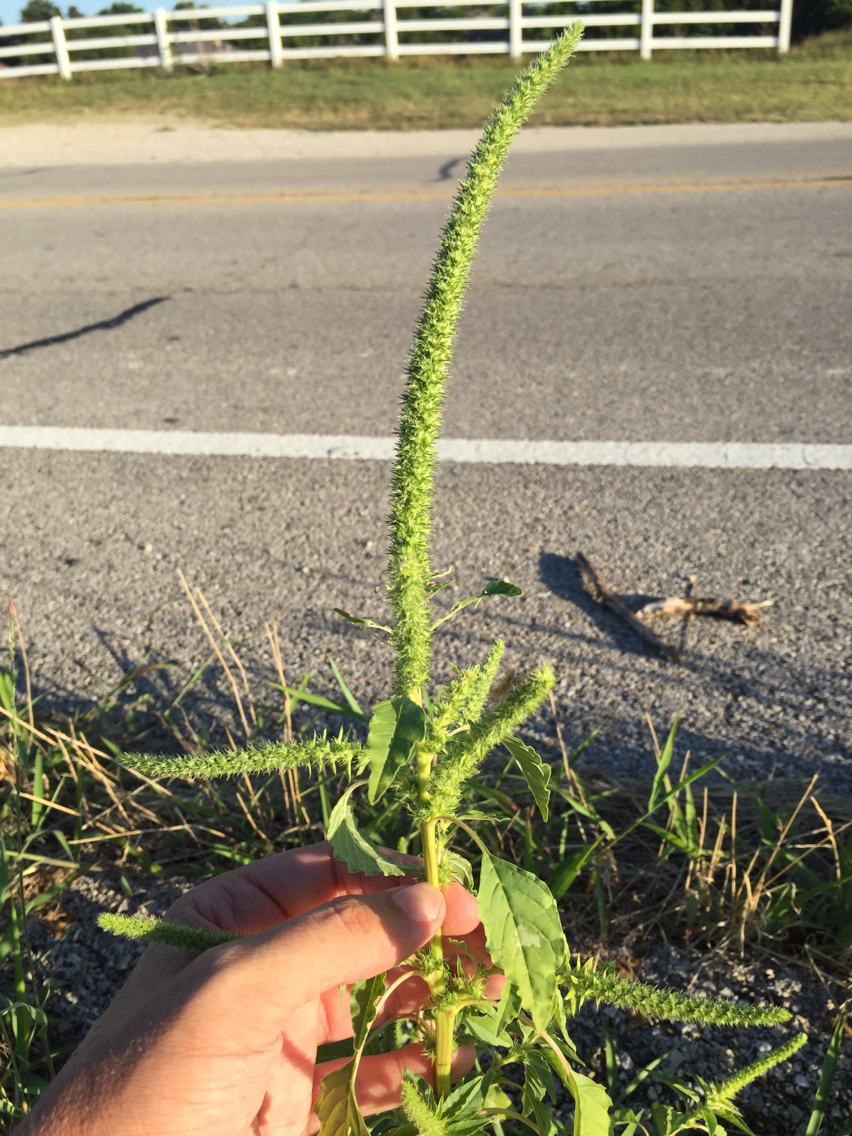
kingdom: Plantae
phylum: Tracheophyta
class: Magnoliopsida
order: Caryophyllales
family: Amaranthaceae
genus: Amaranthus
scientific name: Amaranthus palmeri
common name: Dioecious amaranth
